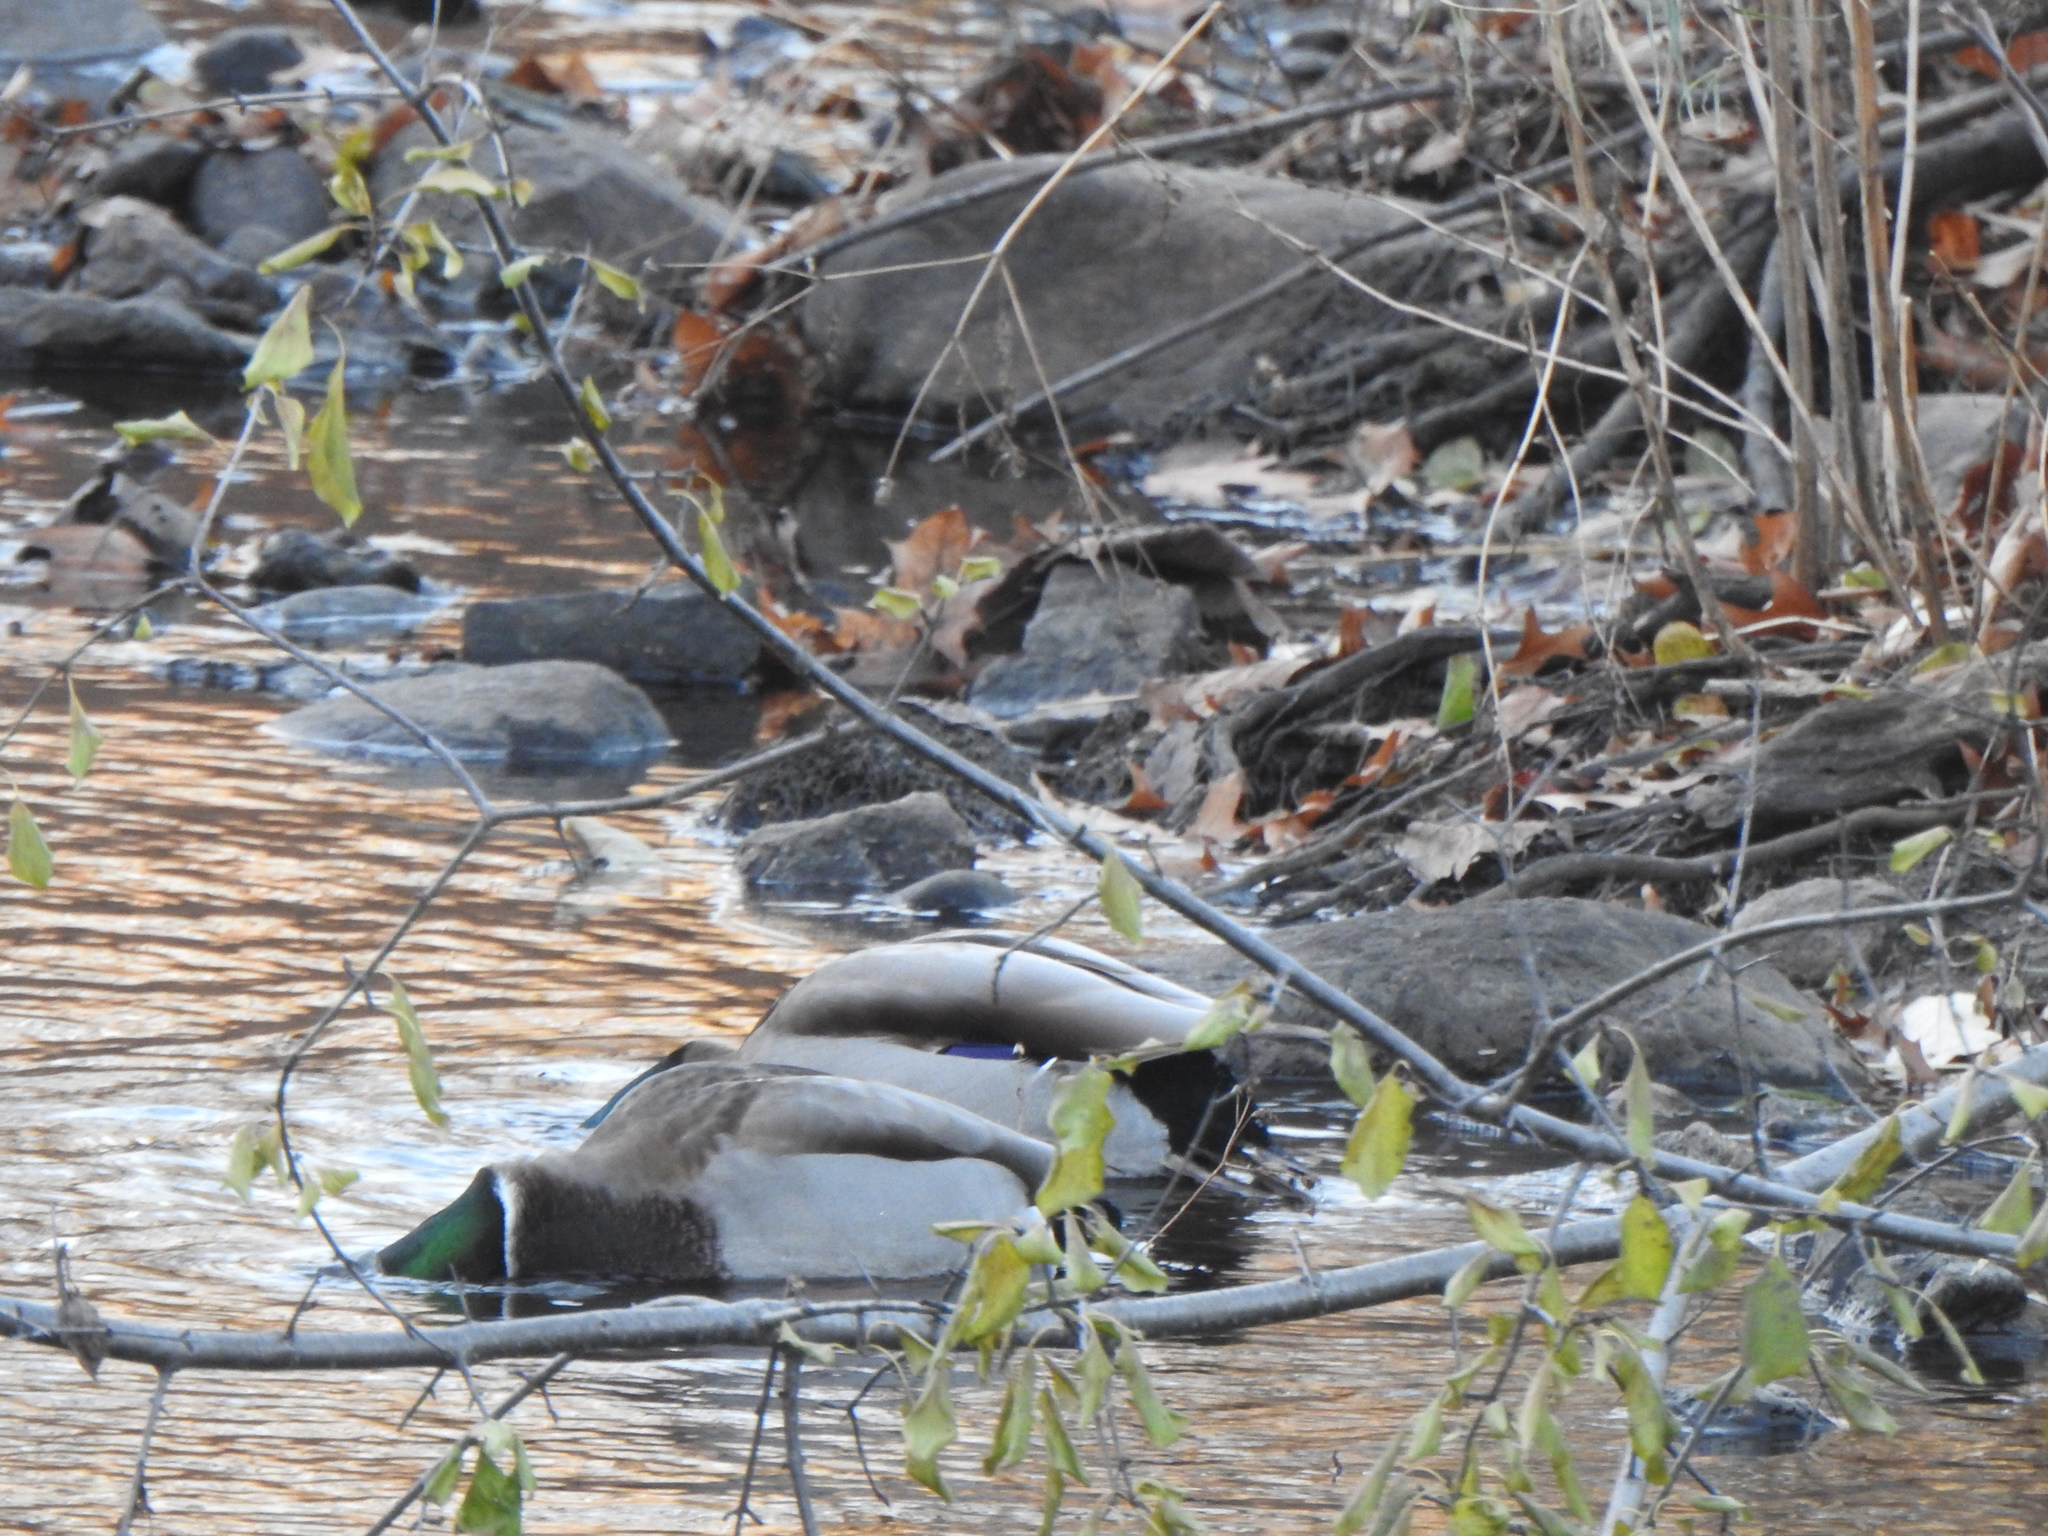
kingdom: Animalia
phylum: Chordata
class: Aves
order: Anseriformes
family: Anatidae
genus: Anas
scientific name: Anas platyrhynchos
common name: Mallard
